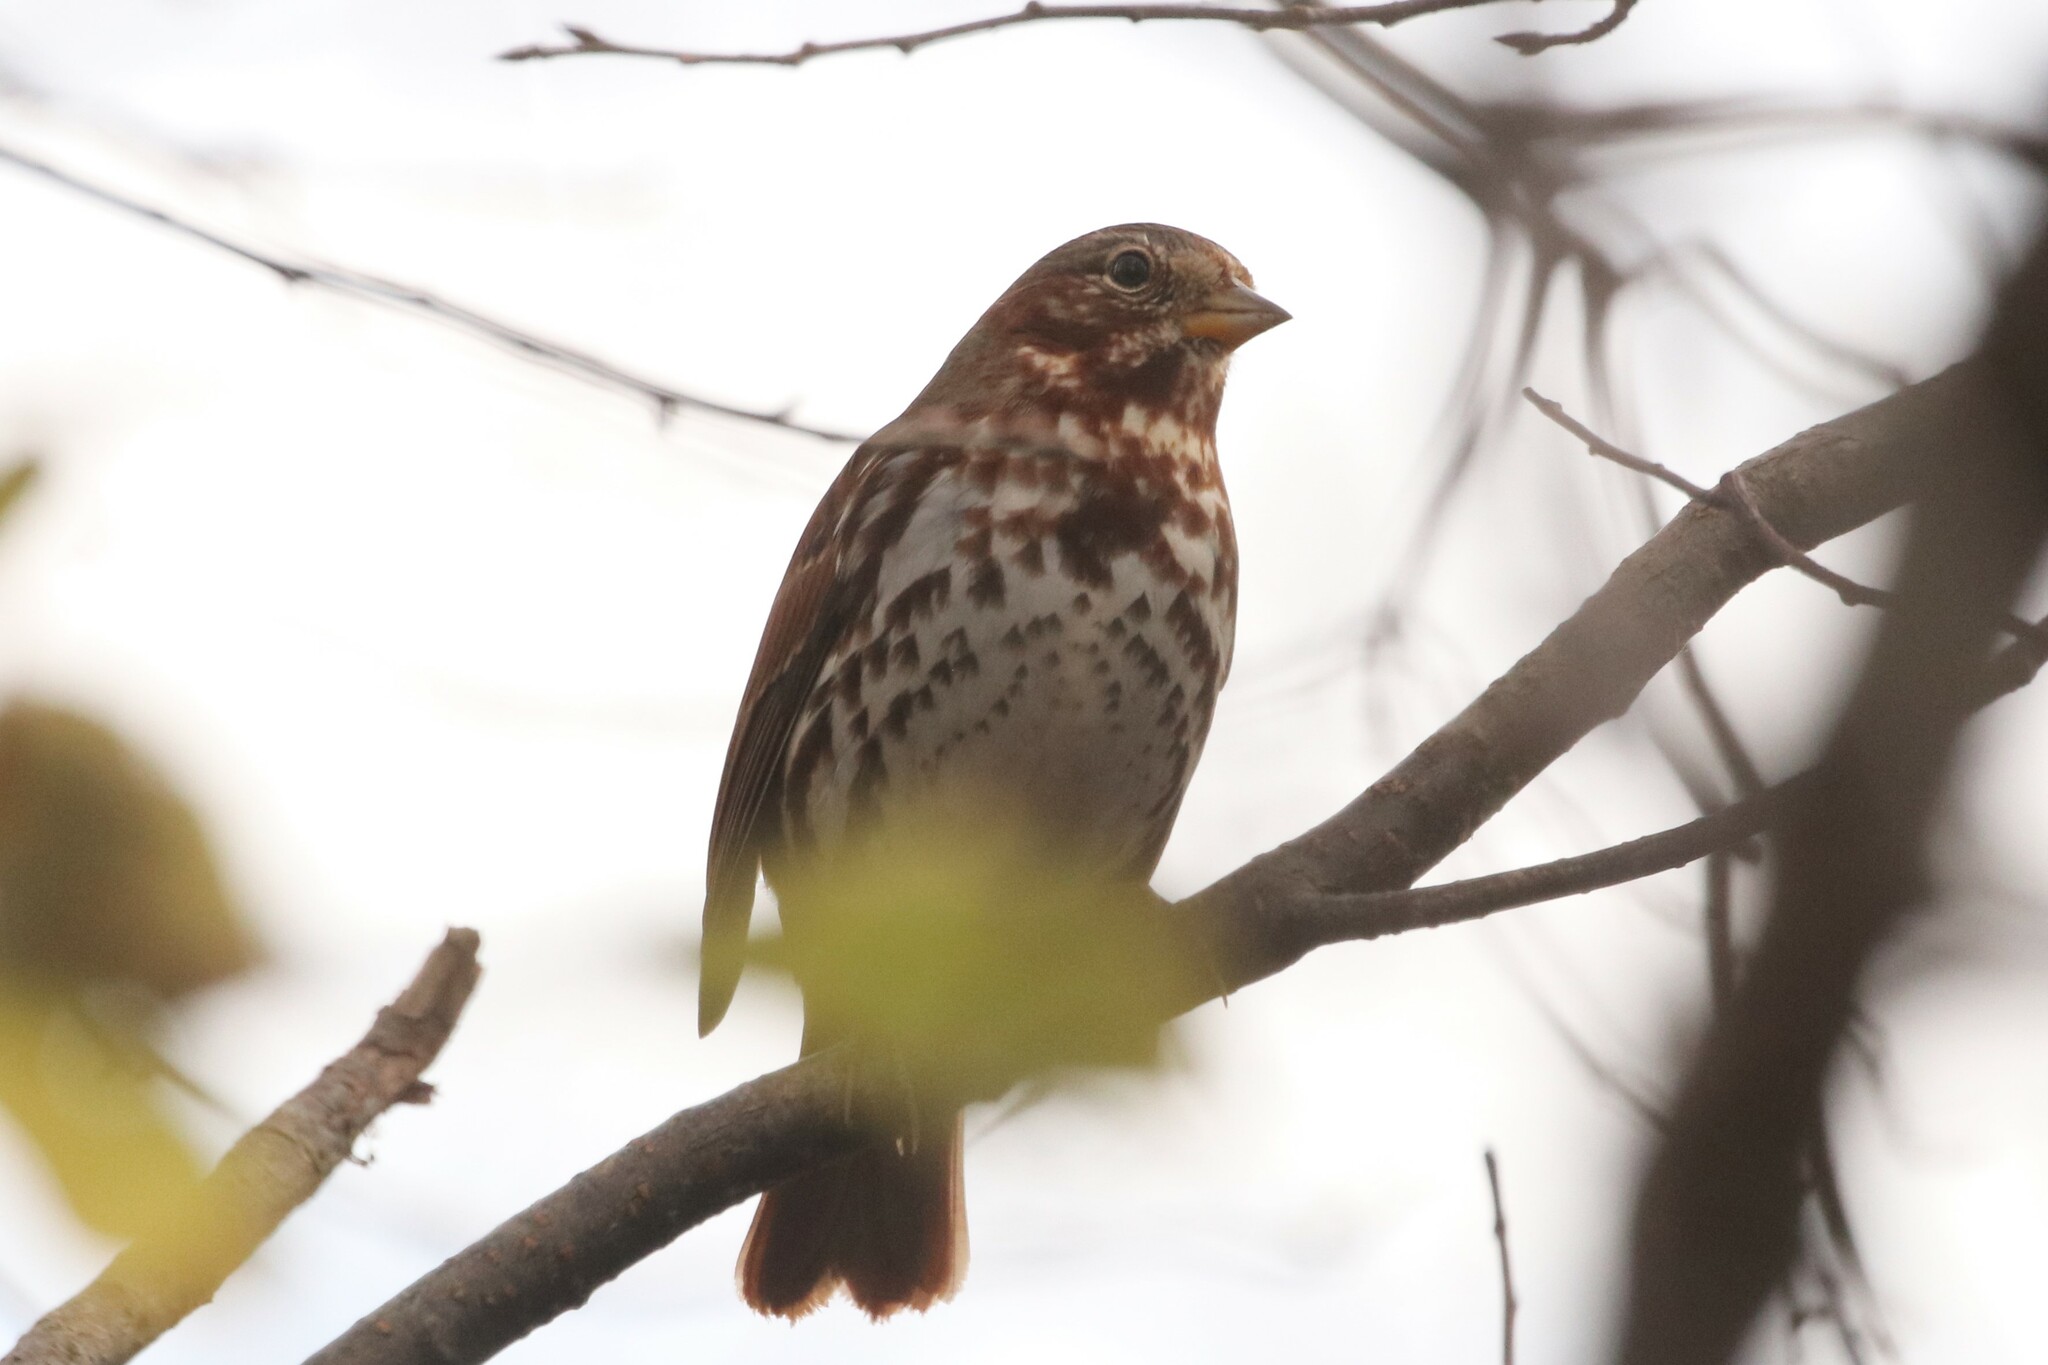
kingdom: Animalia
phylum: Chordata
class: Aves
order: Passeriformes
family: Passerellidae
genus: Passerella
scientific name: Passerella iliaca
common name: Fox sparrow
